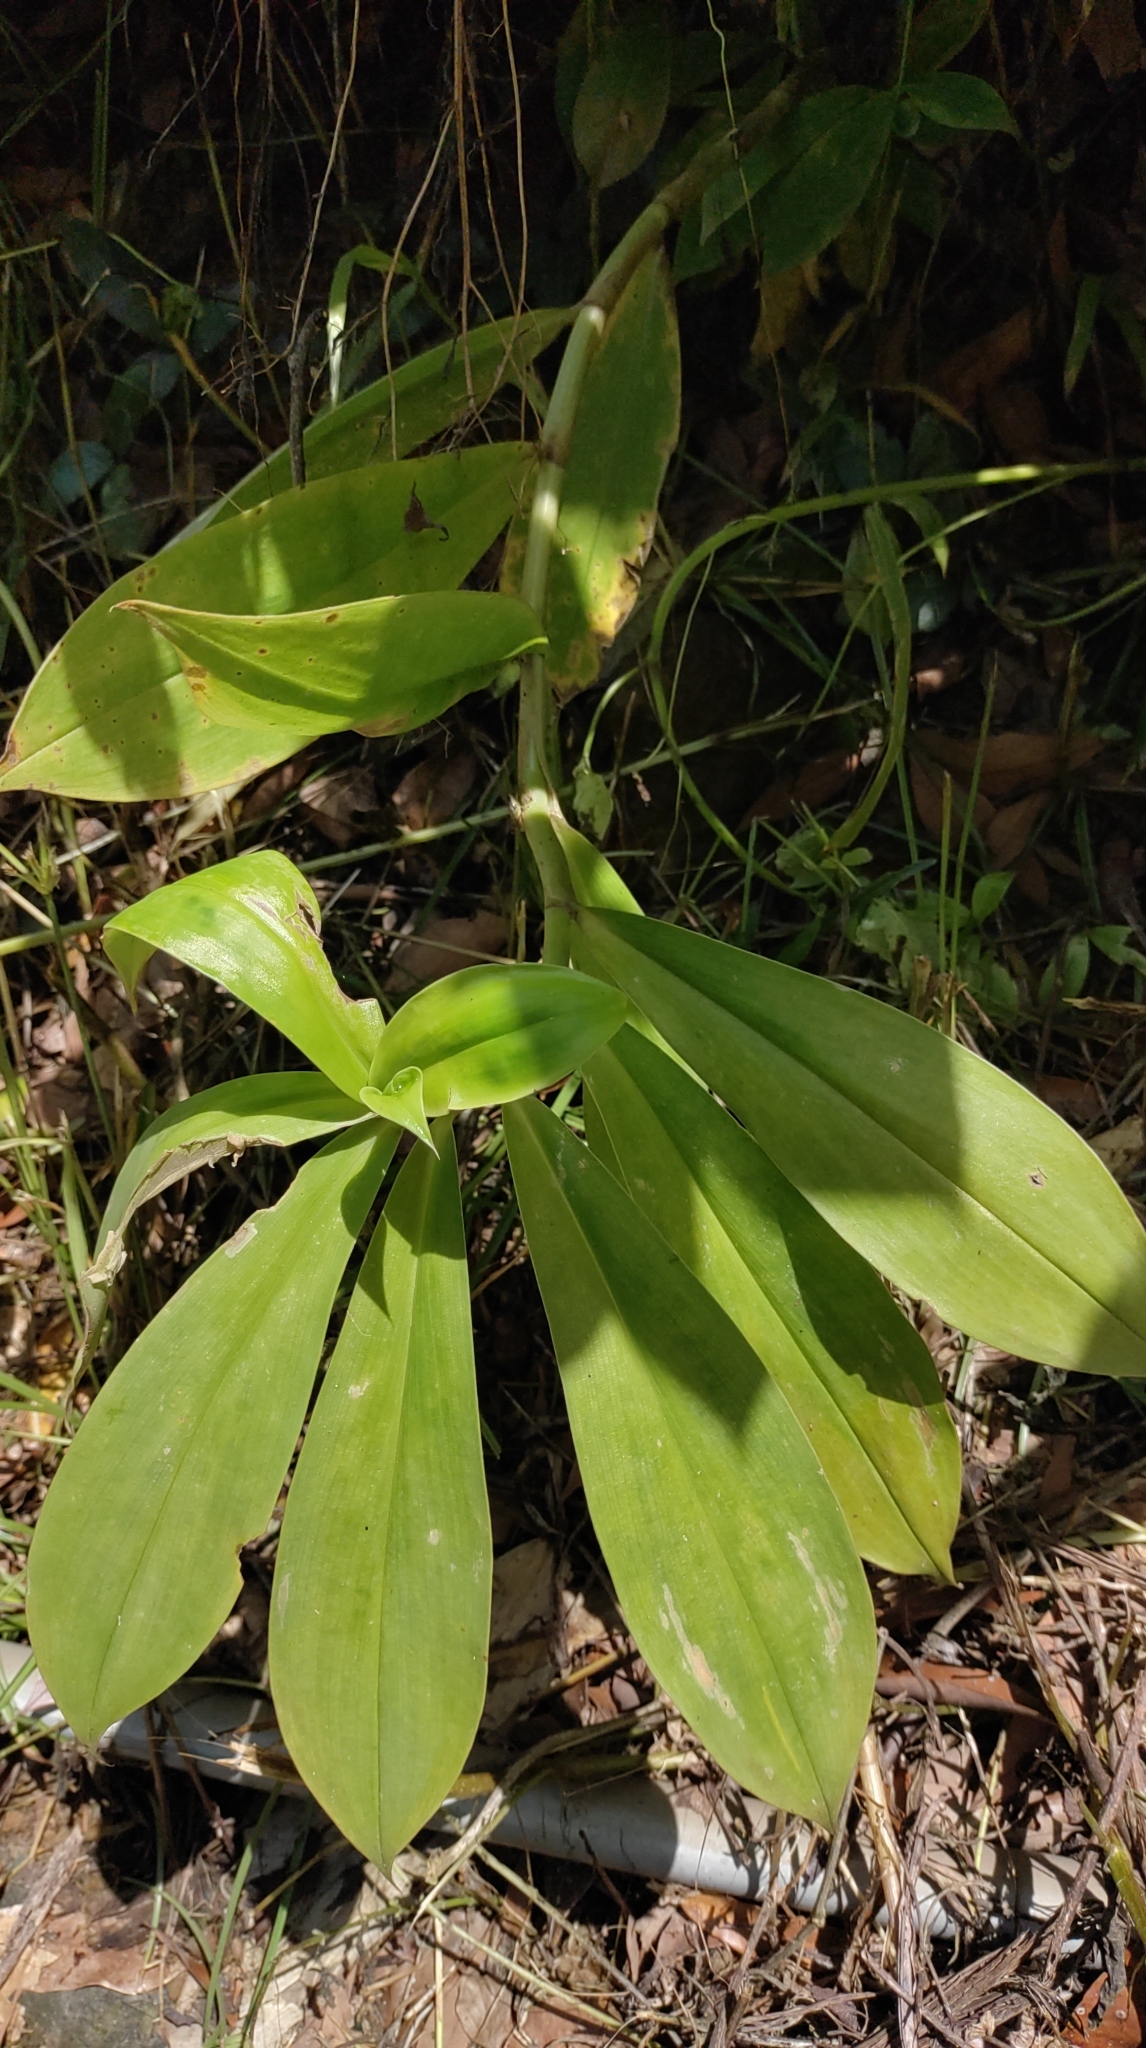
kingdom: Plantae
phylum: Tracheophyta
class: Liliopsida
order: Zingiberales
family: Costaceae
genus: Hellenia
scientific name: Hellenia speciosa
